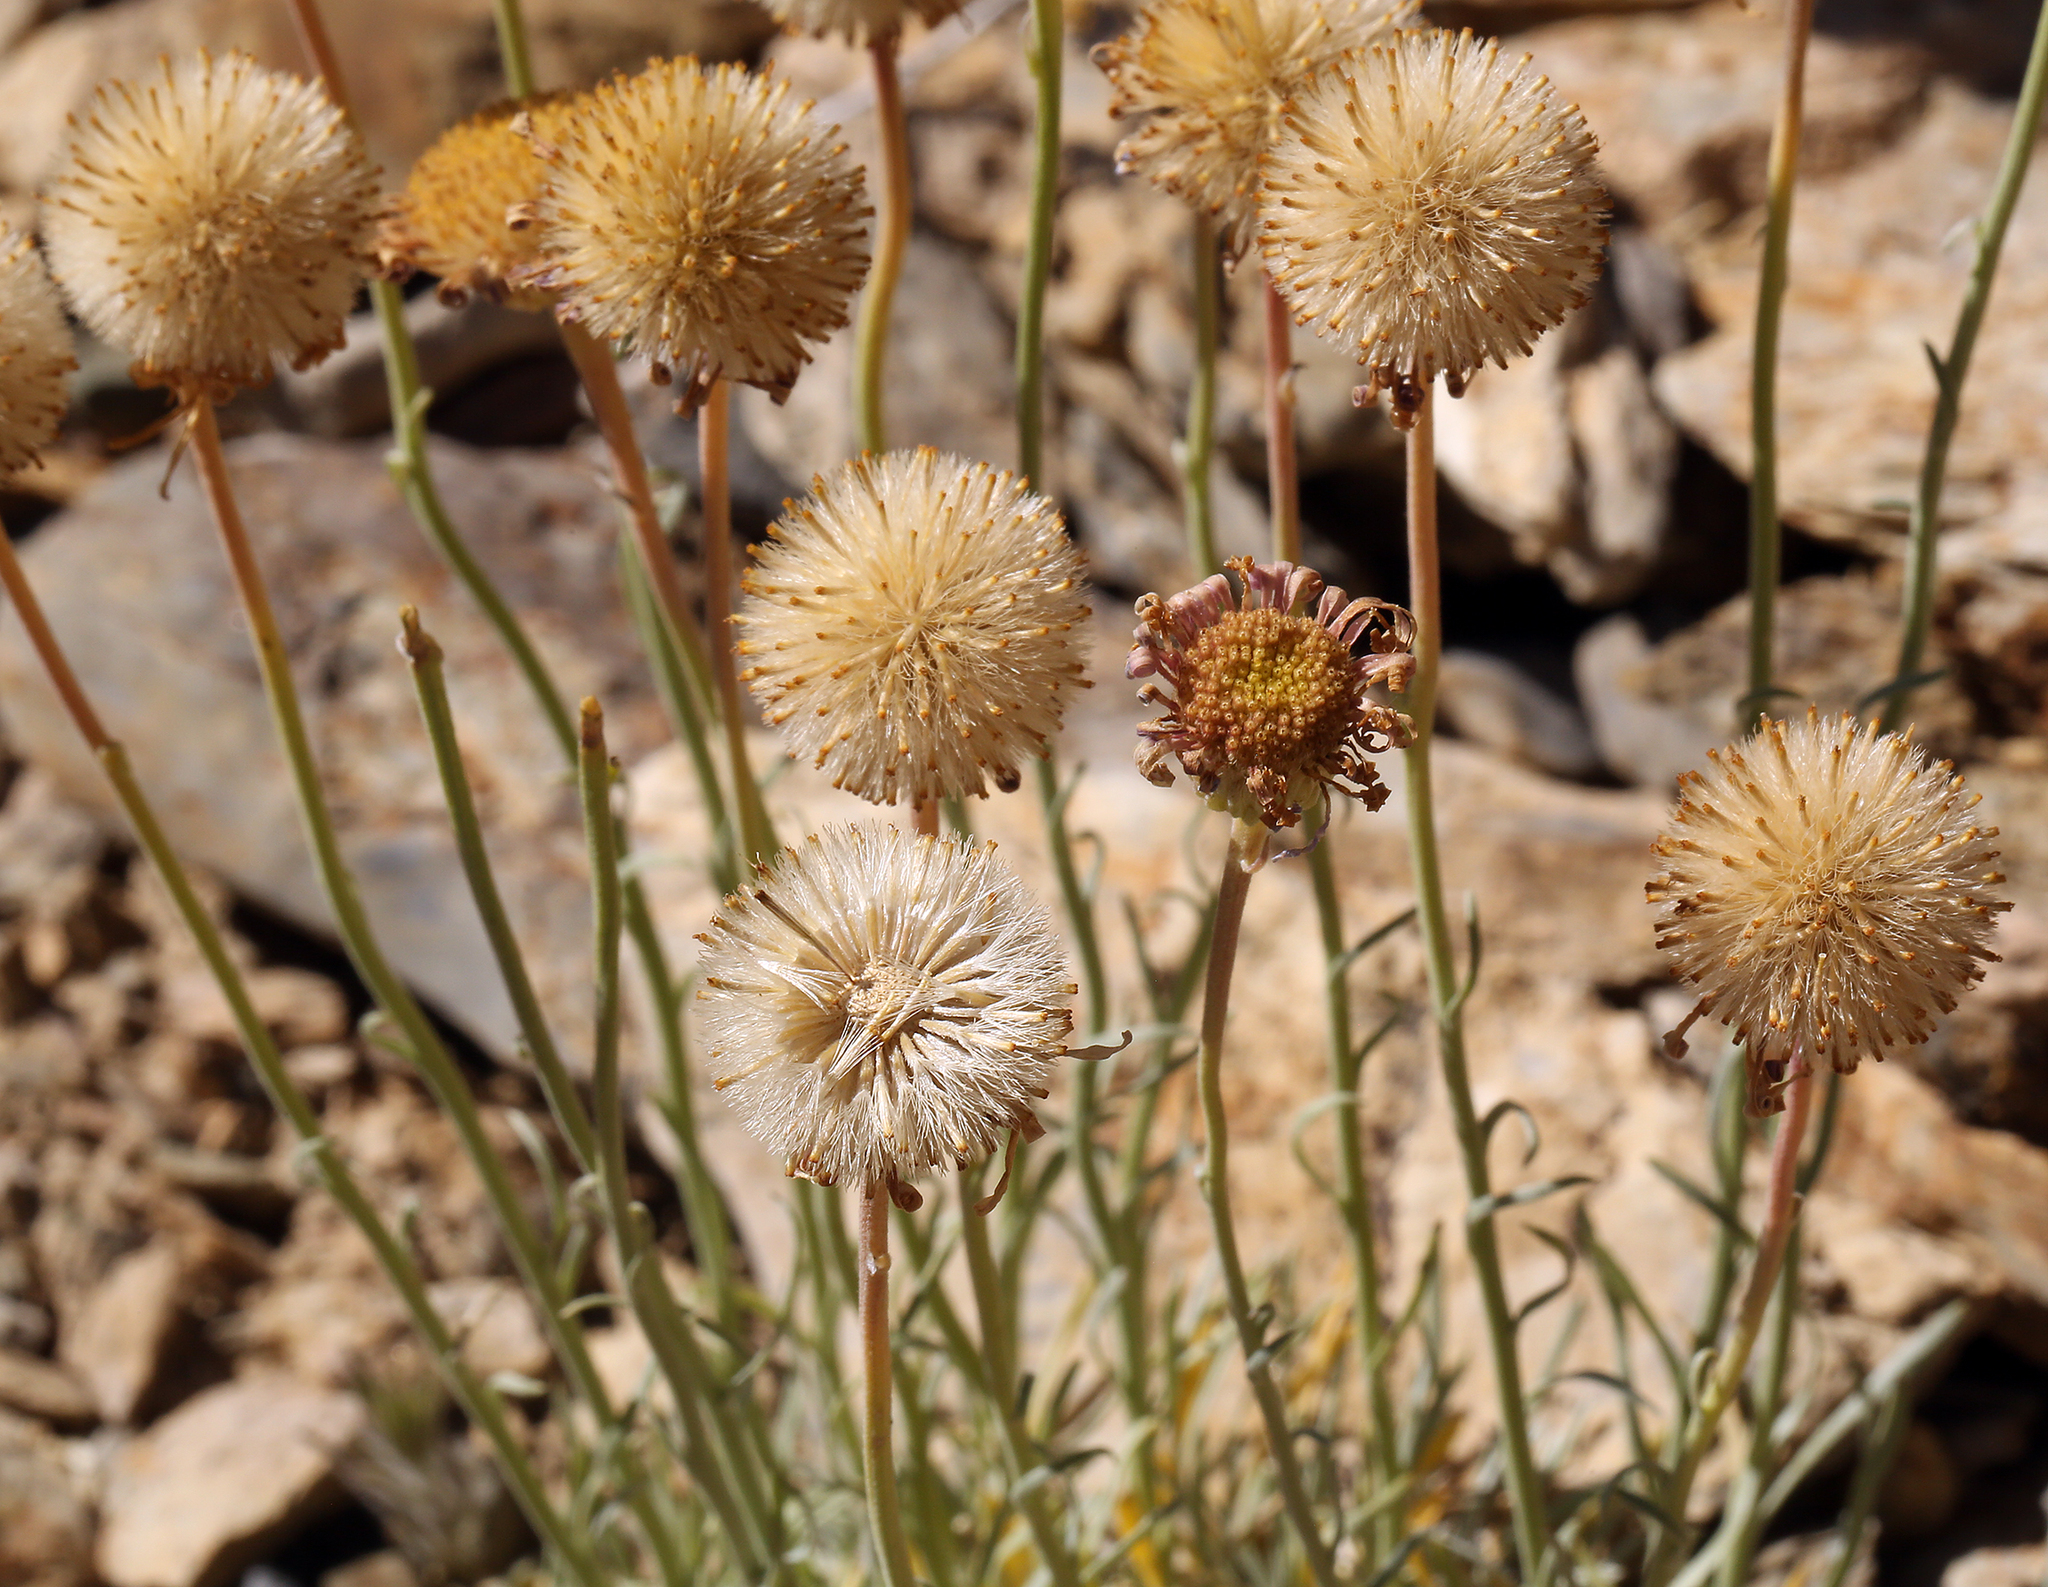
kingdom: Plantae
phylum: Tracheophyta
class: Magnoliopsida
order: Asterales
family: Asteraceae
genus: Erigeron
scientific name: Erigeron argentatus
